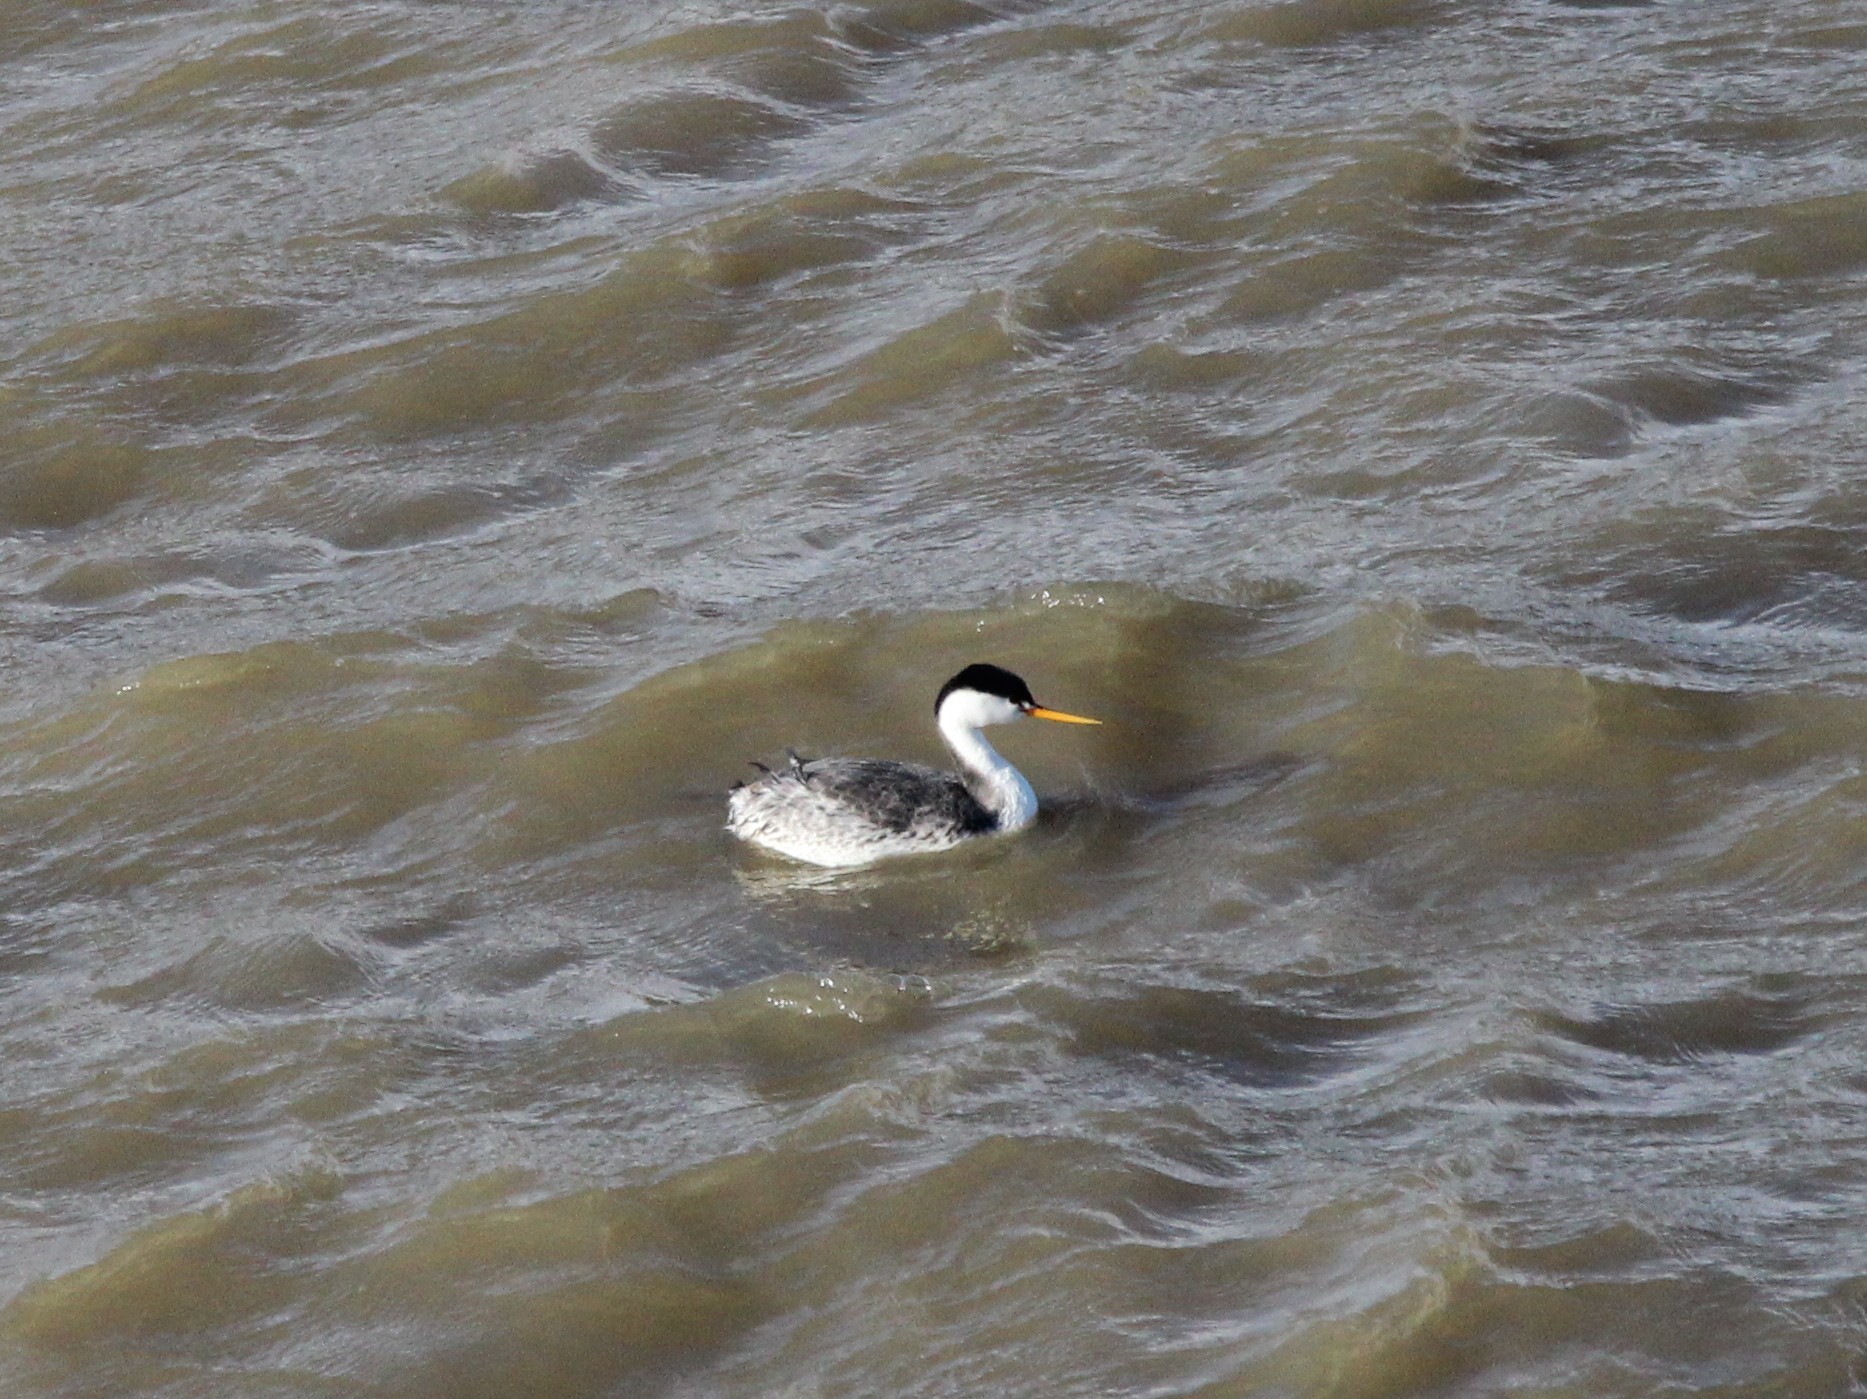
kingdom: Animalia
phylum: Chordata
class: Aves
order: Podicipediformes
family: Podicipedidae
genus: Aechmophorus
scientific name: Aechmophorus clarkii
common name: Clark's grebe
